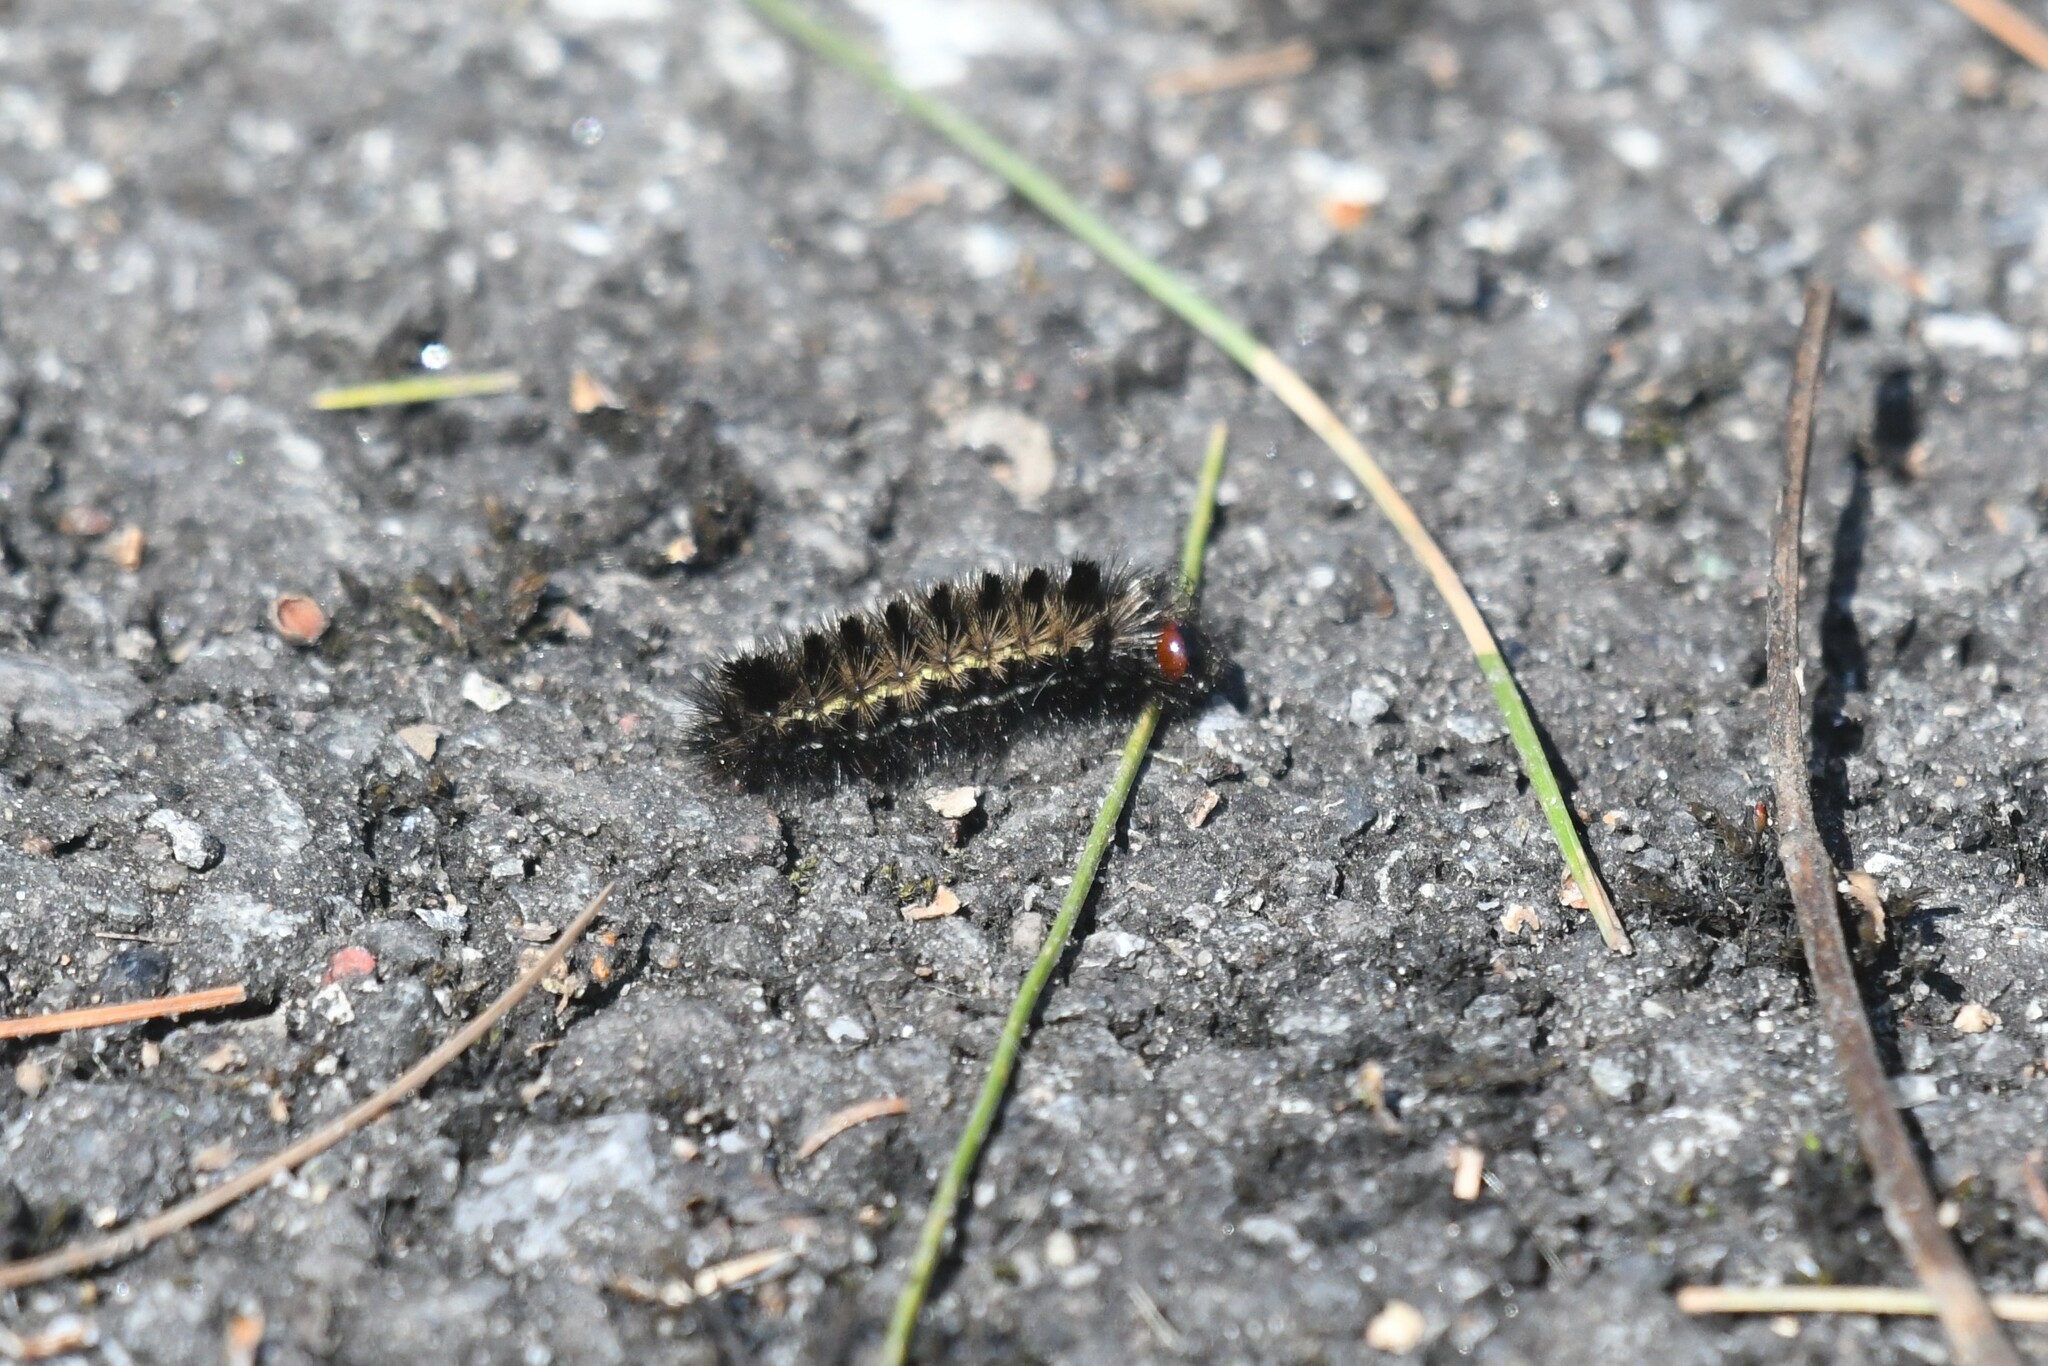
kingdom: Animalia
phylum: Arthropoda
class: Insecta
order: Lepidoptera
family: Erebidae
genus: Ctenucha
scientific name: Ctenucha virginica
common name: Virginia ctenucha moth
